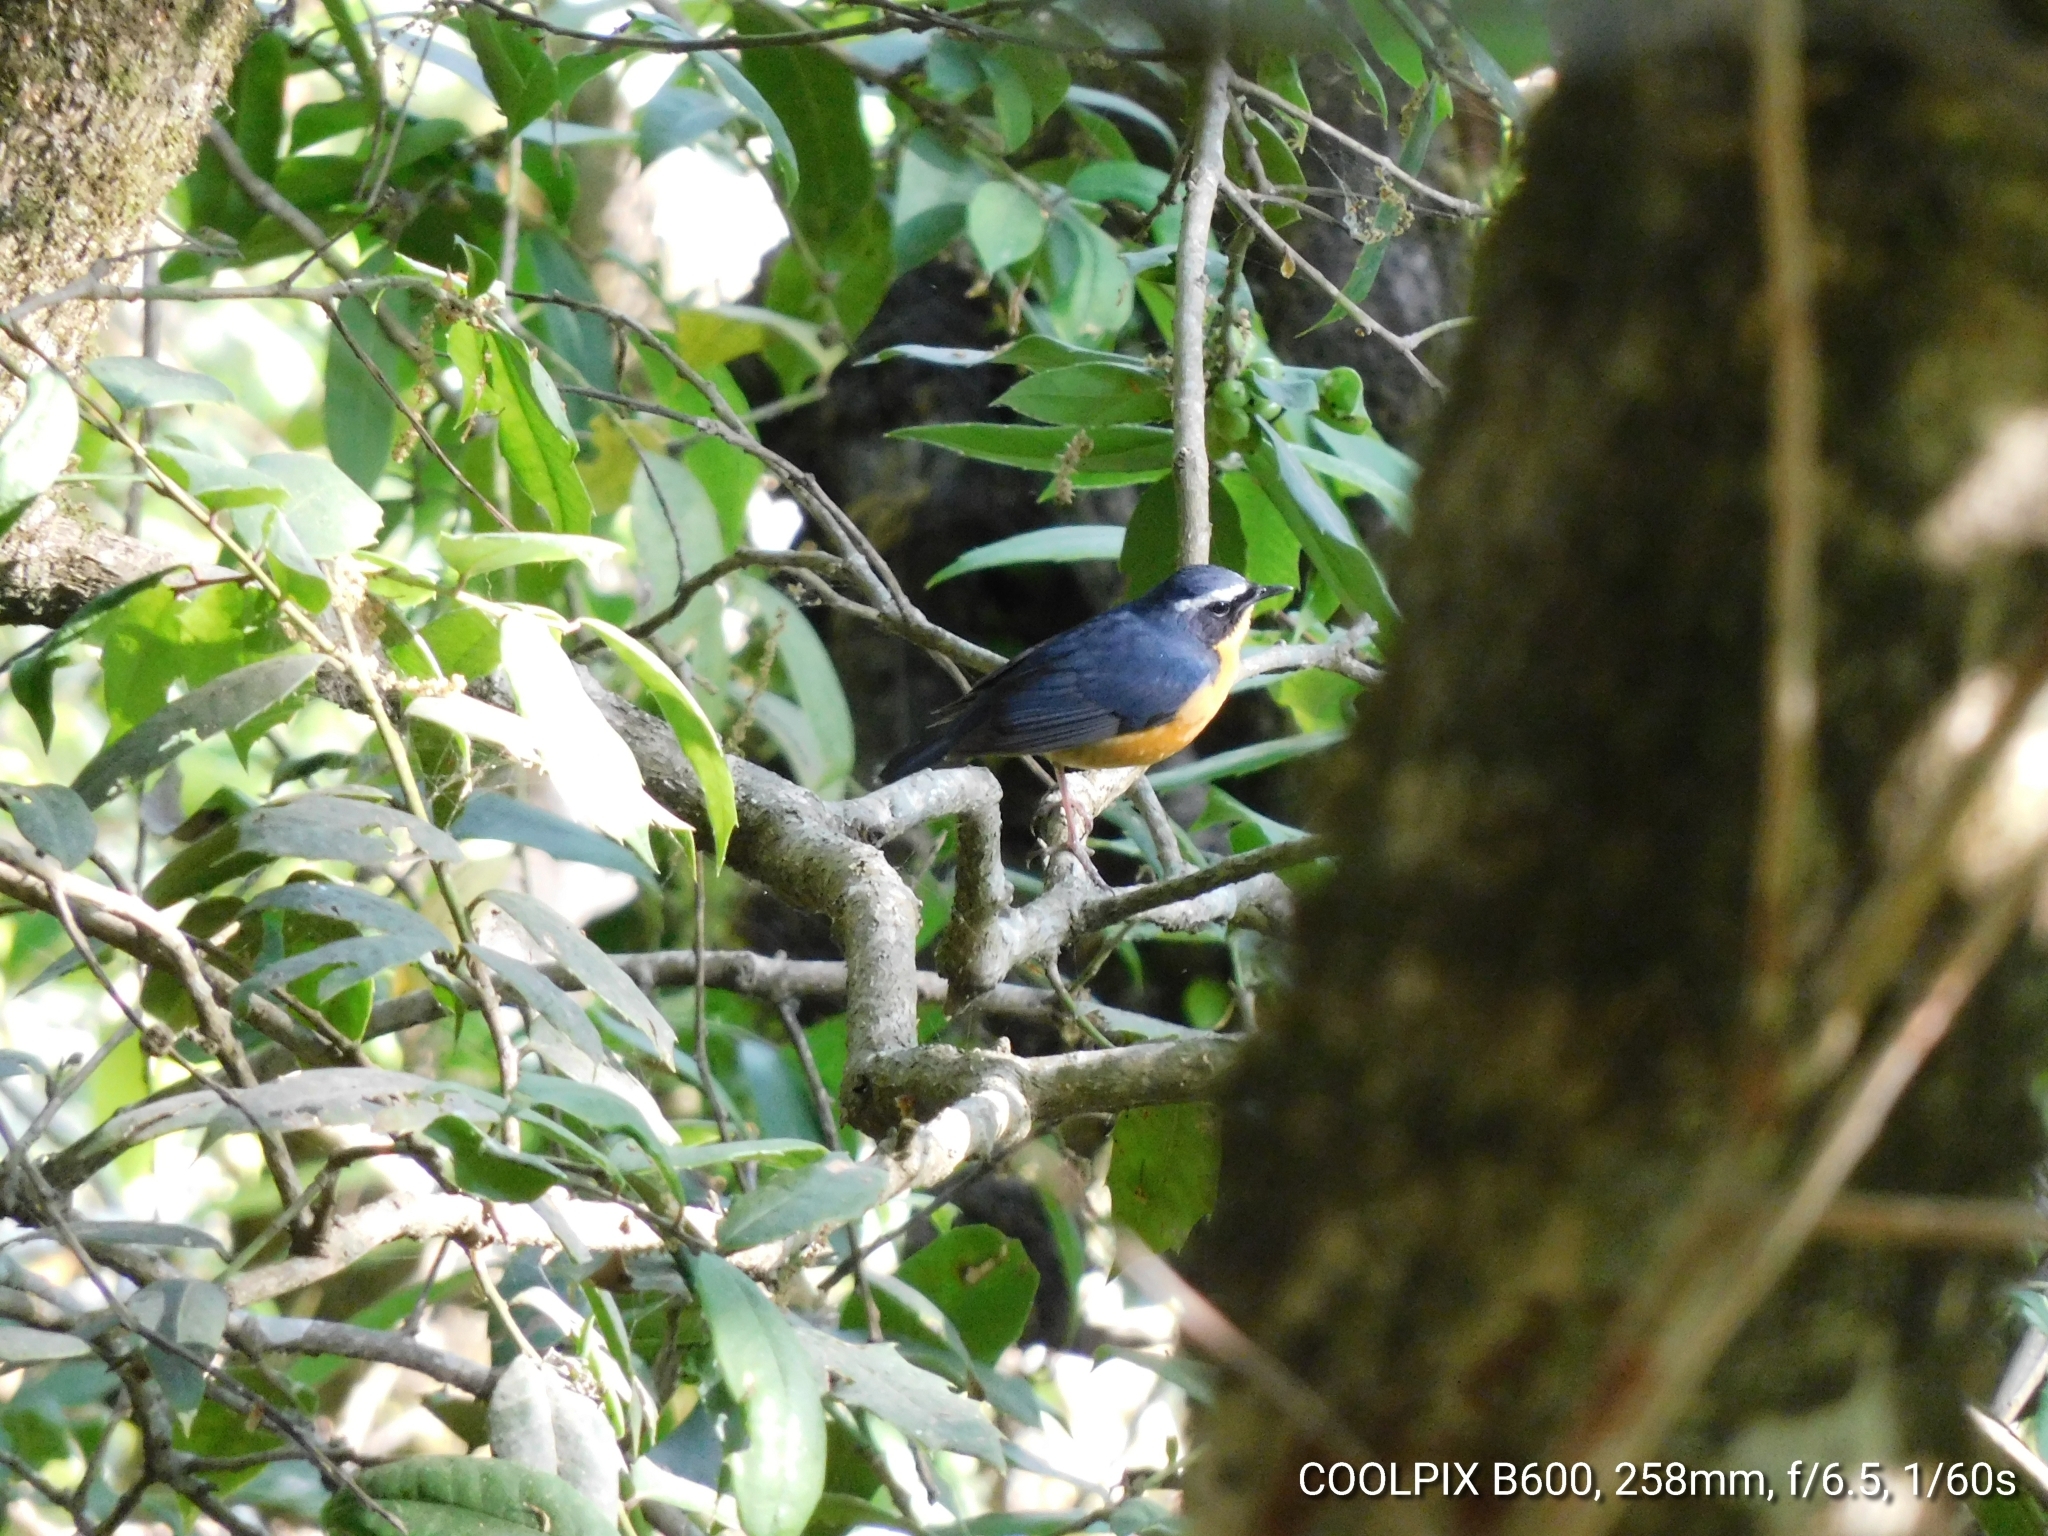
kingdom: Animalia
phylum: Chordata
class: Aves
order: Passeriformes
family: Muscicapidae
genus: Luscinia
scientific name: Luscinia brunnea
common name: Indian blue robin
